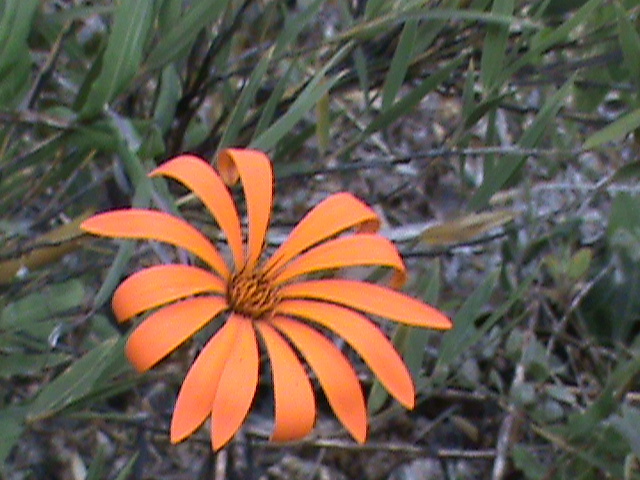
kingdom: Plantae
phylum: Tracheophyta
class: Magnoliopsida
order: Asterales
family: Asteraceae
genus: Mutisia
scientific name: Mutisia decurrens
